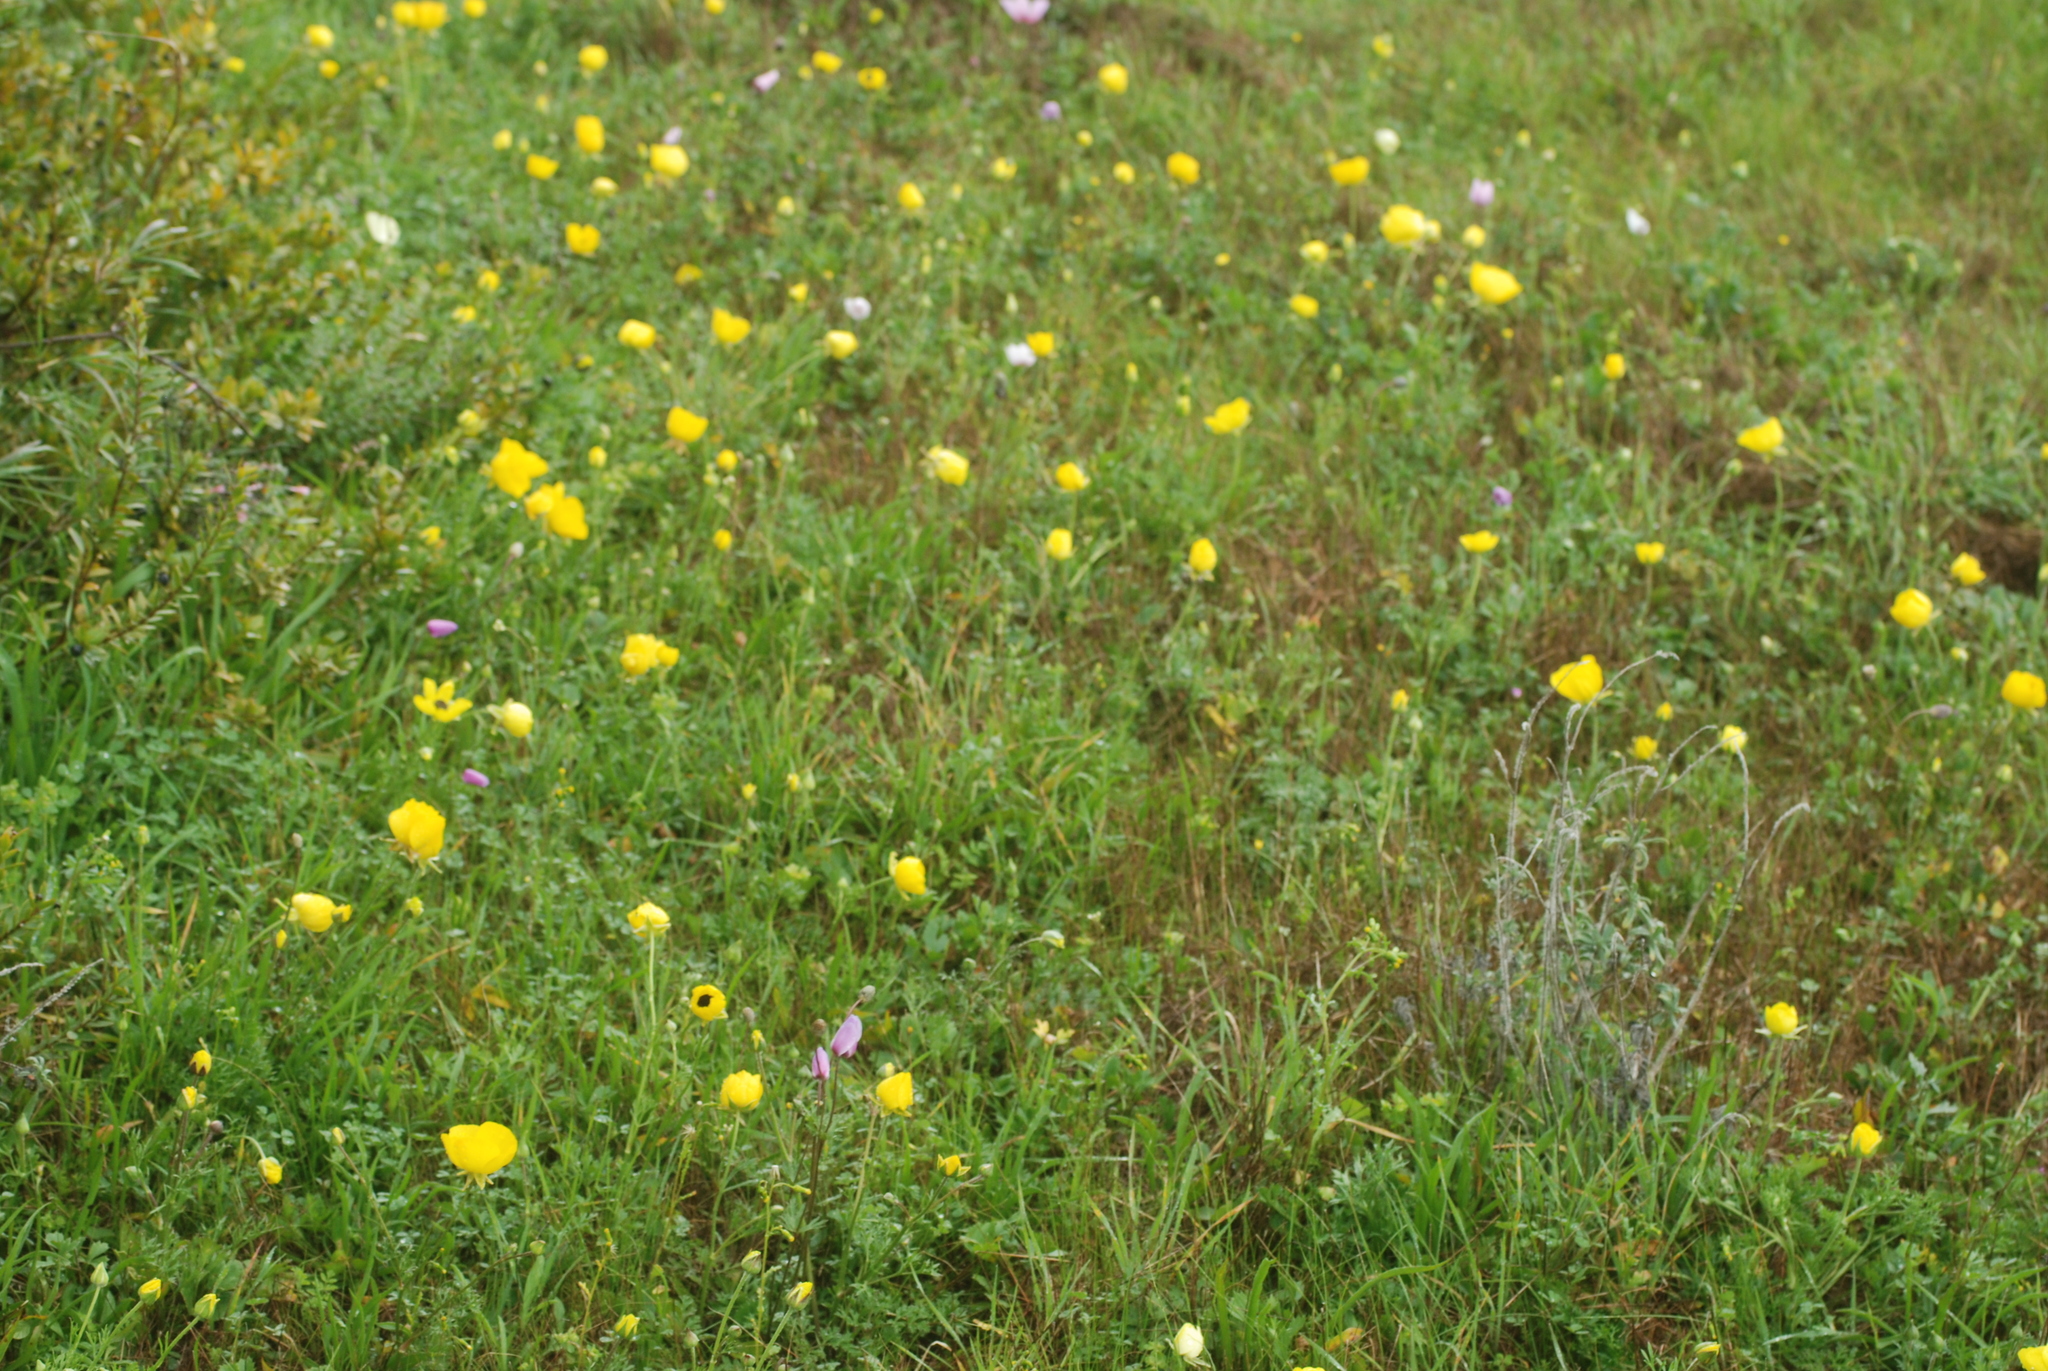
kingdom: Plantae
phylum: Tracheophyta
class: Magnoliopsida
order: Ranunculales
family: Ranunculaceae
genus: Ranunculus
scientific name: Ranunculus asiaticus
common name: Persian buttercup
